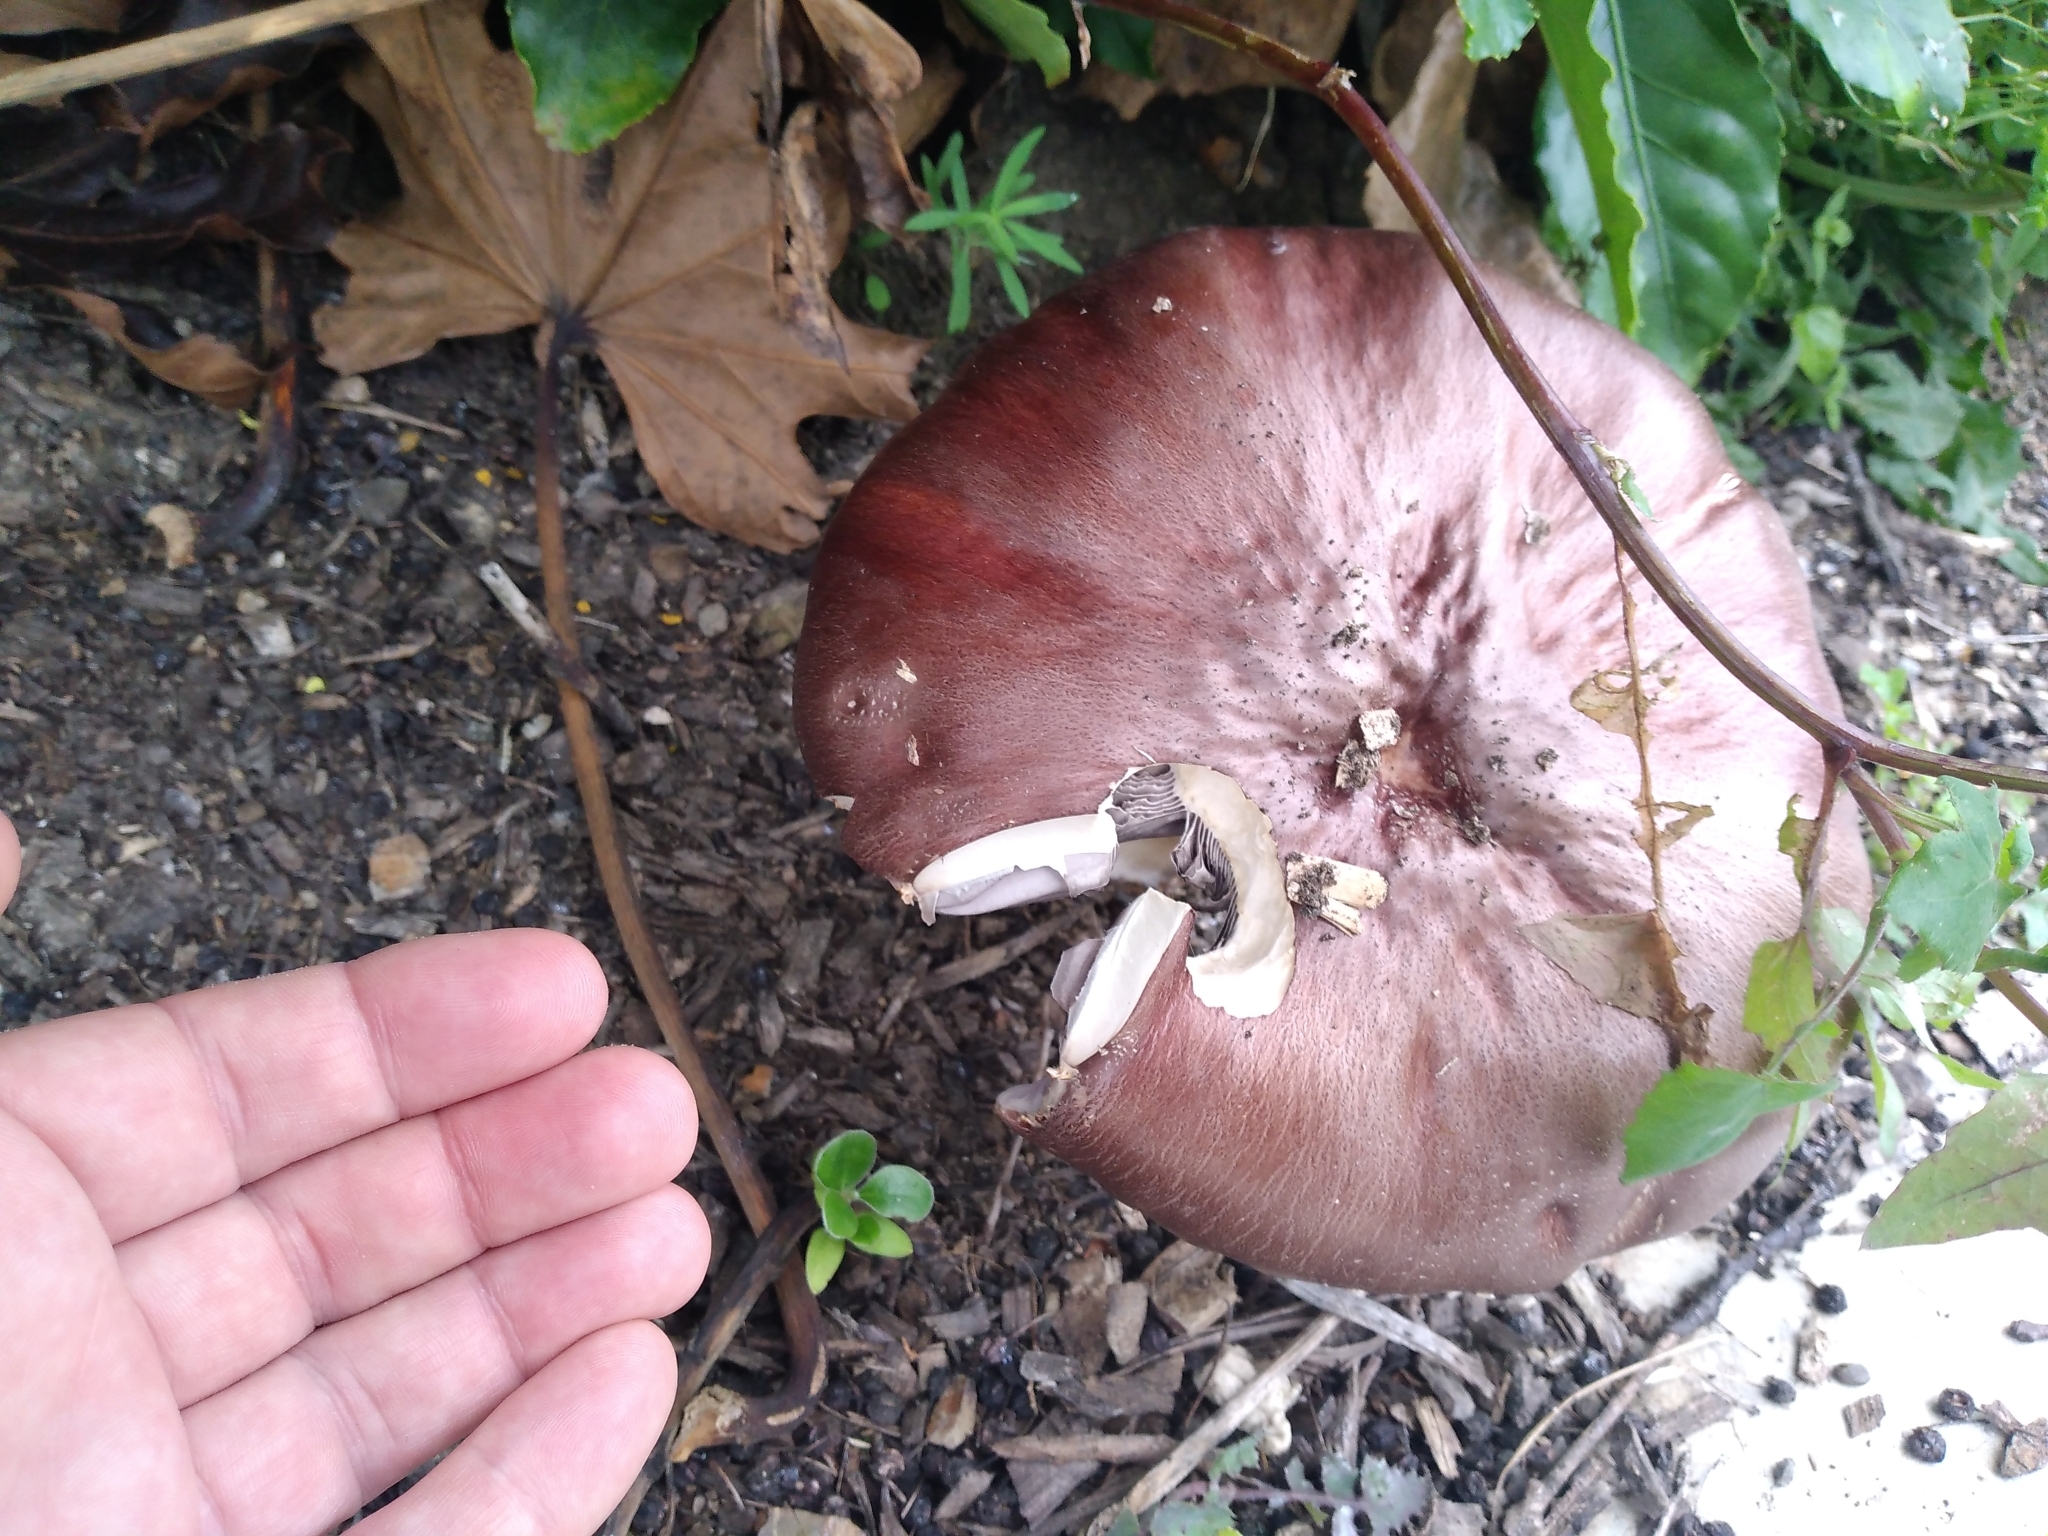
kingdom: Fungi
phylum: Basidiomycota
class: Agaricomycetes
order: Agaricales
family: Strophariaceae
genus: Stropharia
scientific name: Stropharia rugosoannulata
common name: Wine roundhead
